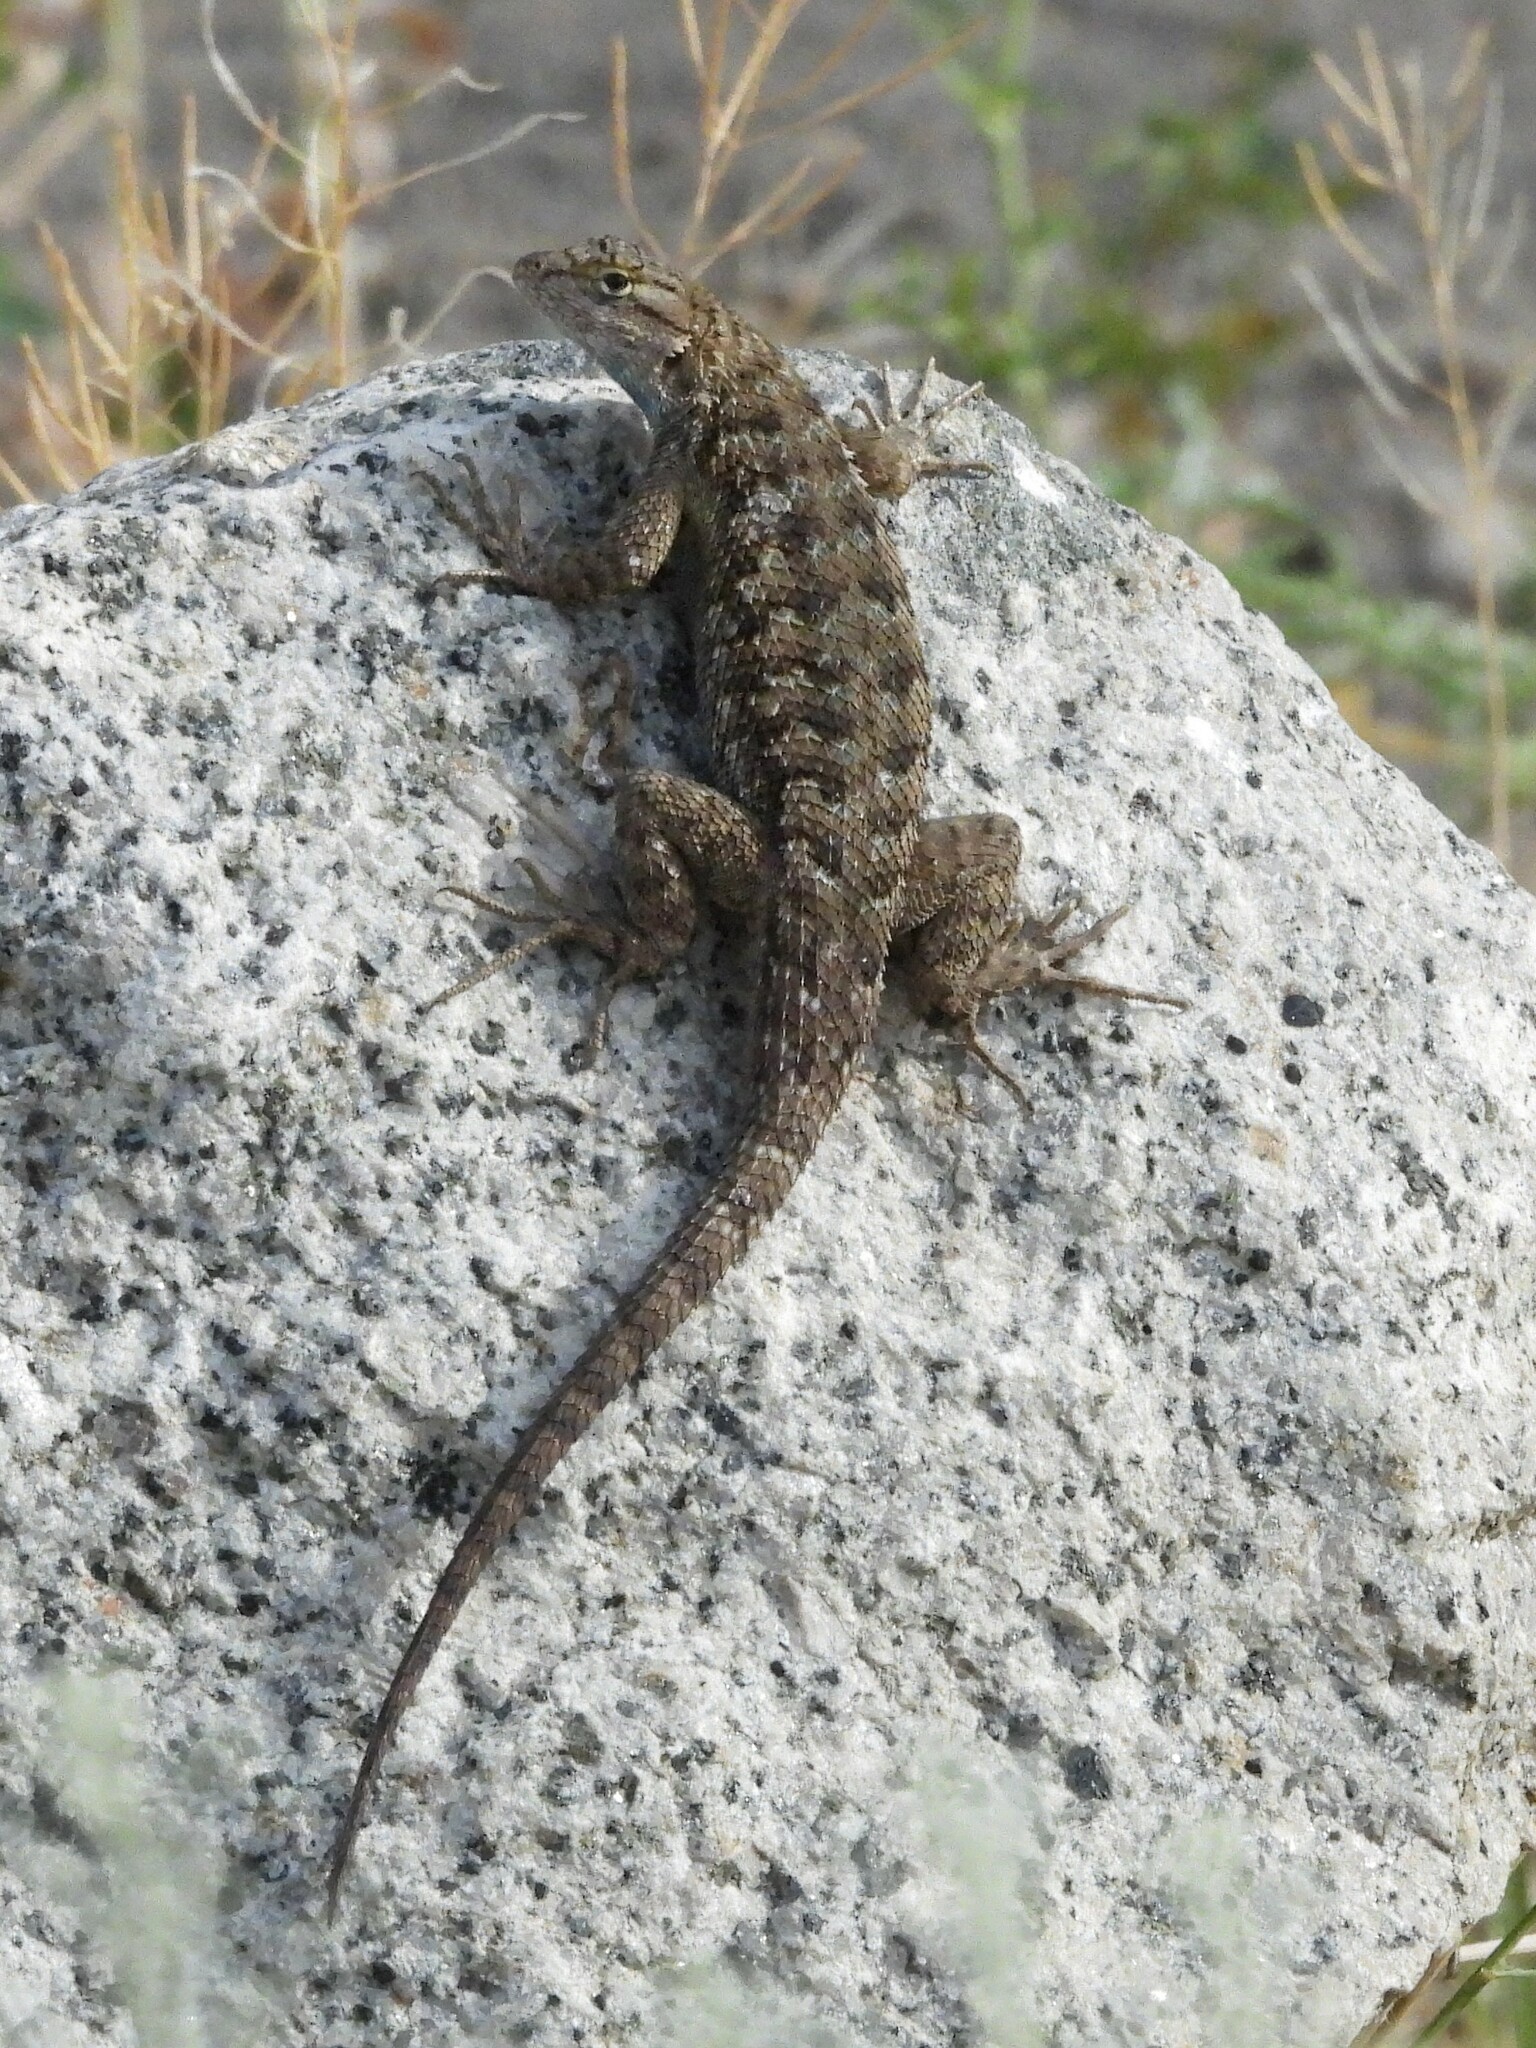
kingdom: Animalia
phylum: Chordata
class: Squamata
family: Phrynosomatidae
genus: Sceloporus
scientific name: Sceloporus occidentalis
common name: Western fence lizard
